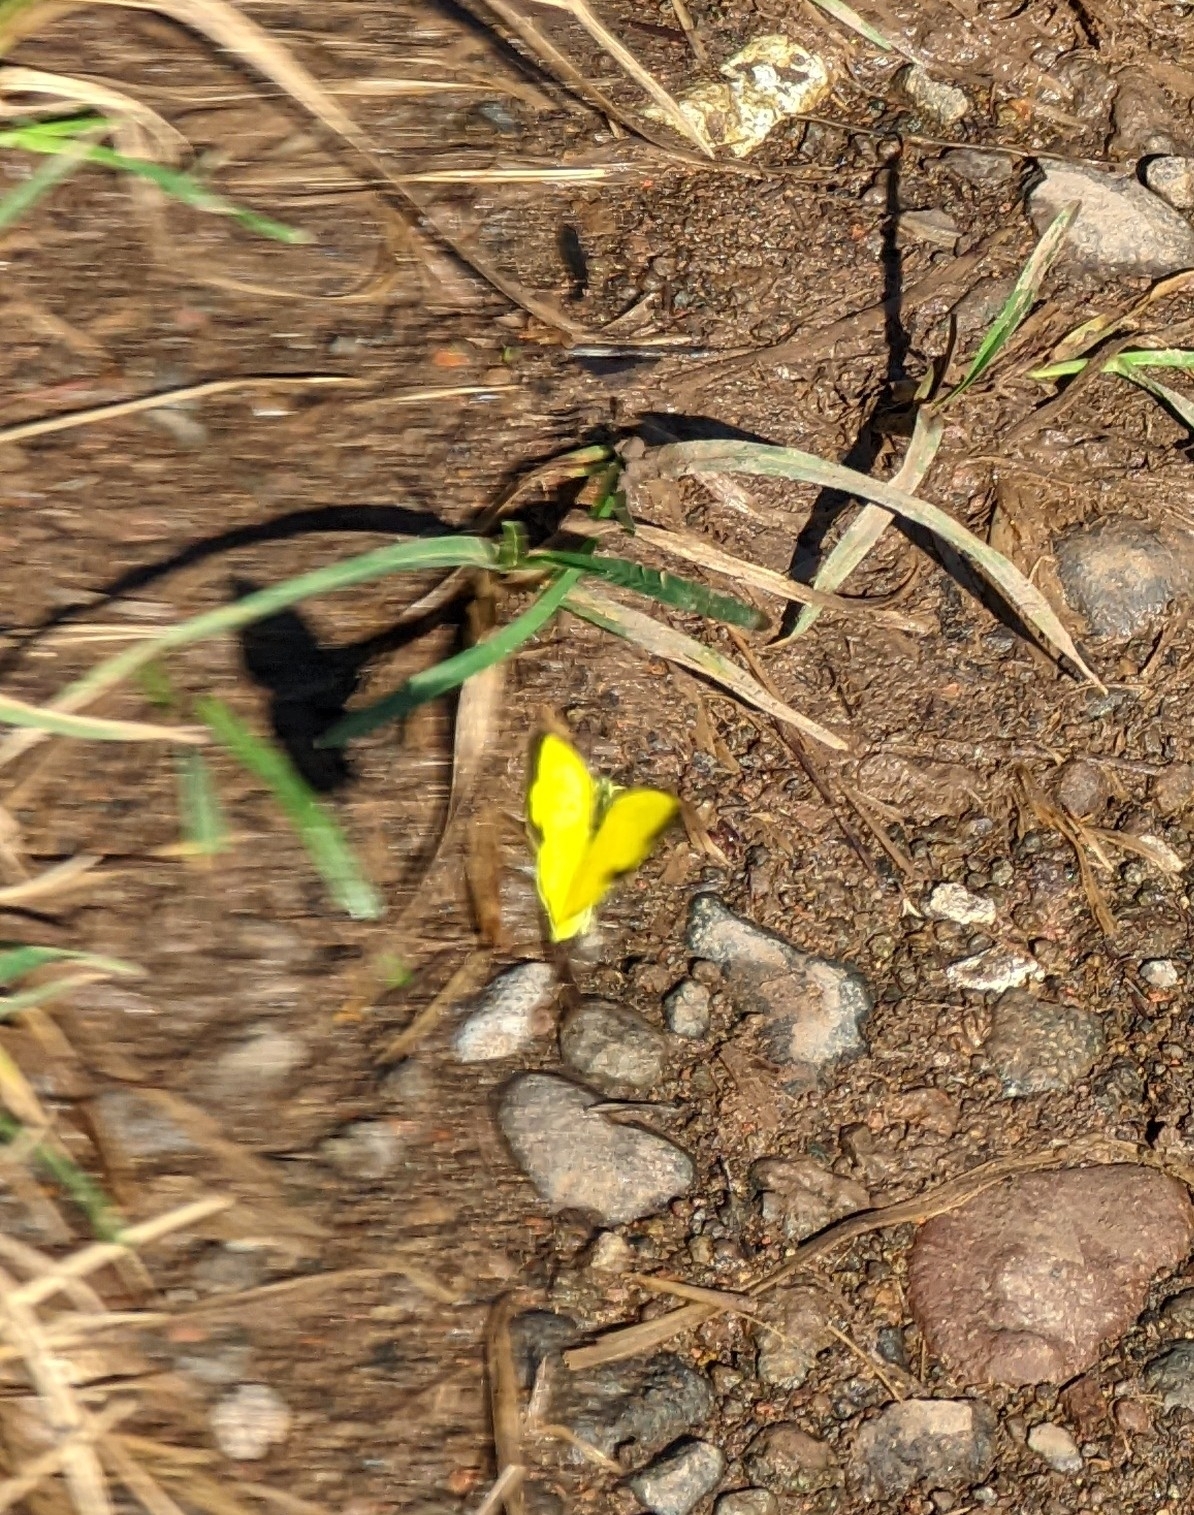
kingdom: Animalia
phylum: Arthropoda
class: Insecta
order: Lepidoptera
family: Pieridae
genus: Eurema
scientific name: Eurema hecabe
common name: Pale grass yellow
